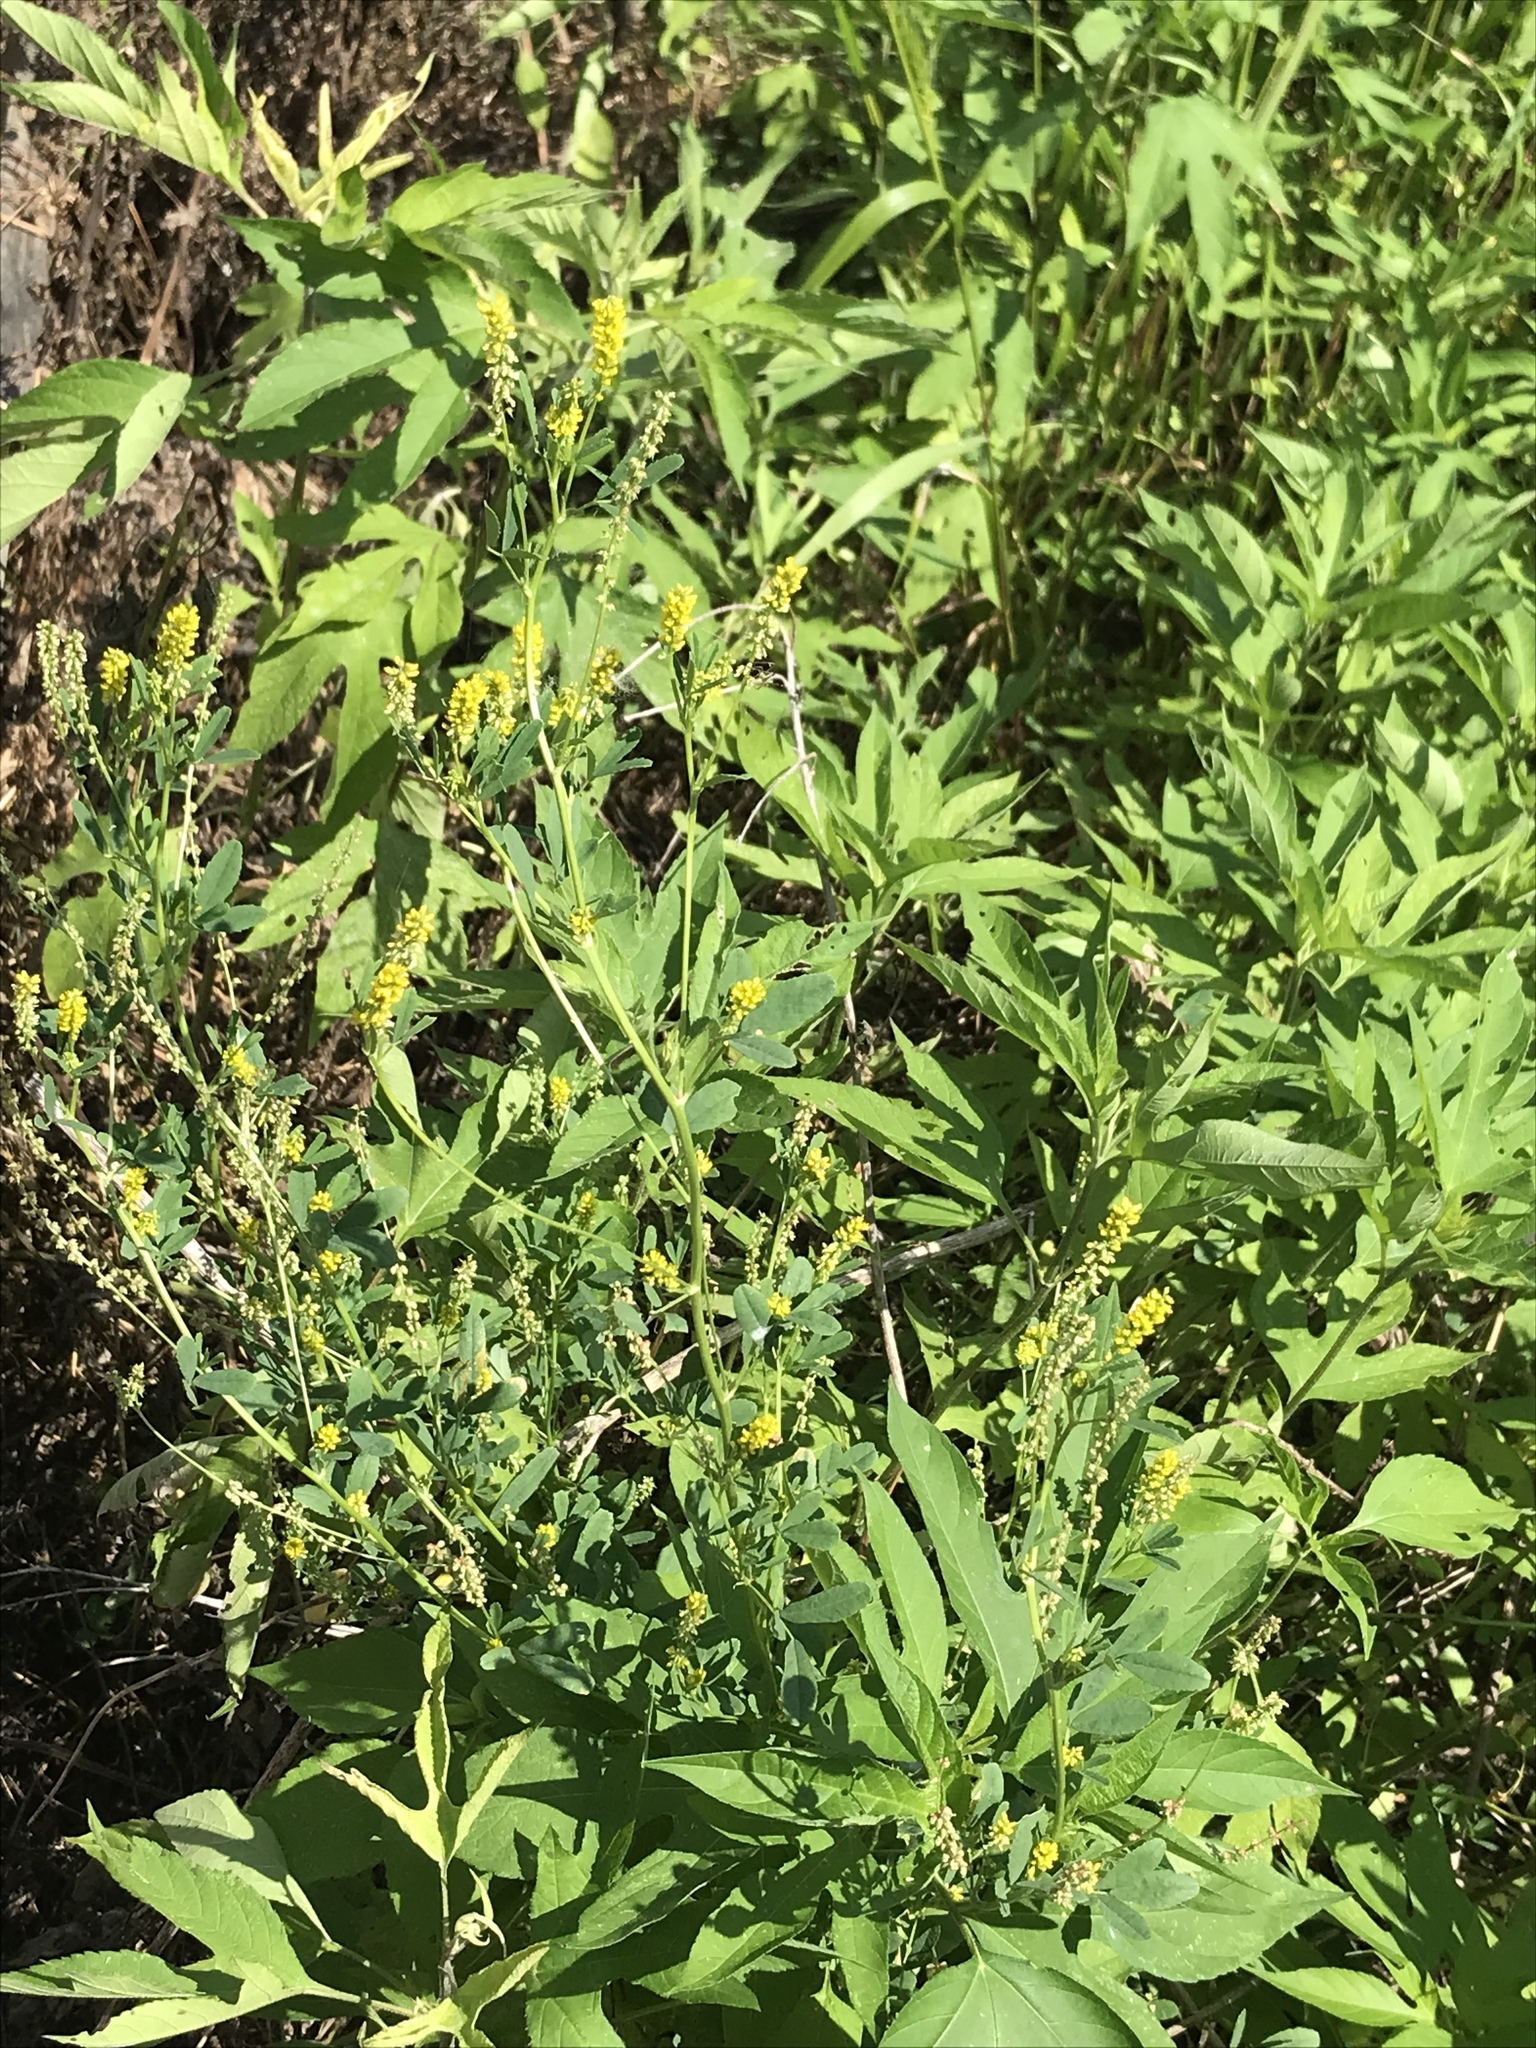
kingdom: Plantae
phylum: Tracheophyta
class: Magnoliopsida
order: Fabales
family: Fabaceae
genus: Melilotus
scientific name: Melilotus indicus
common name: Small melilot
